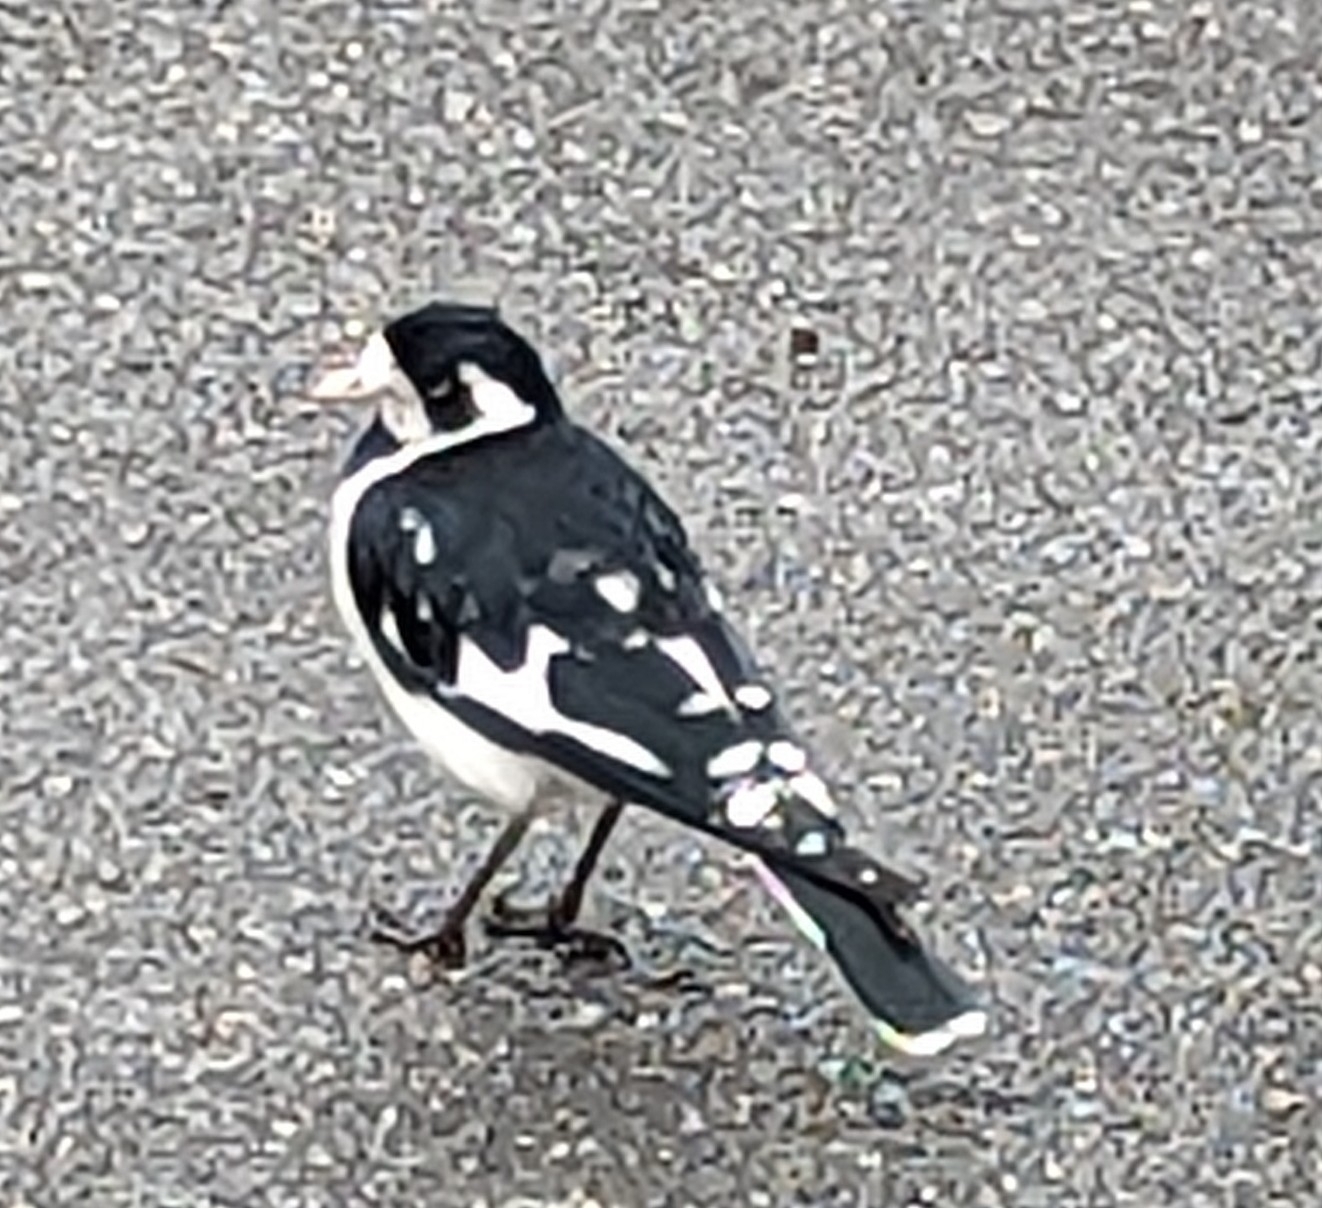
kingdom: Animalia
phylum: Chordata
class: Aves
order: Passeriformes
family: Monarchidae
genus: Grallina
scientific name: Grallina cyanoleuca
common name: Magpie-lark
